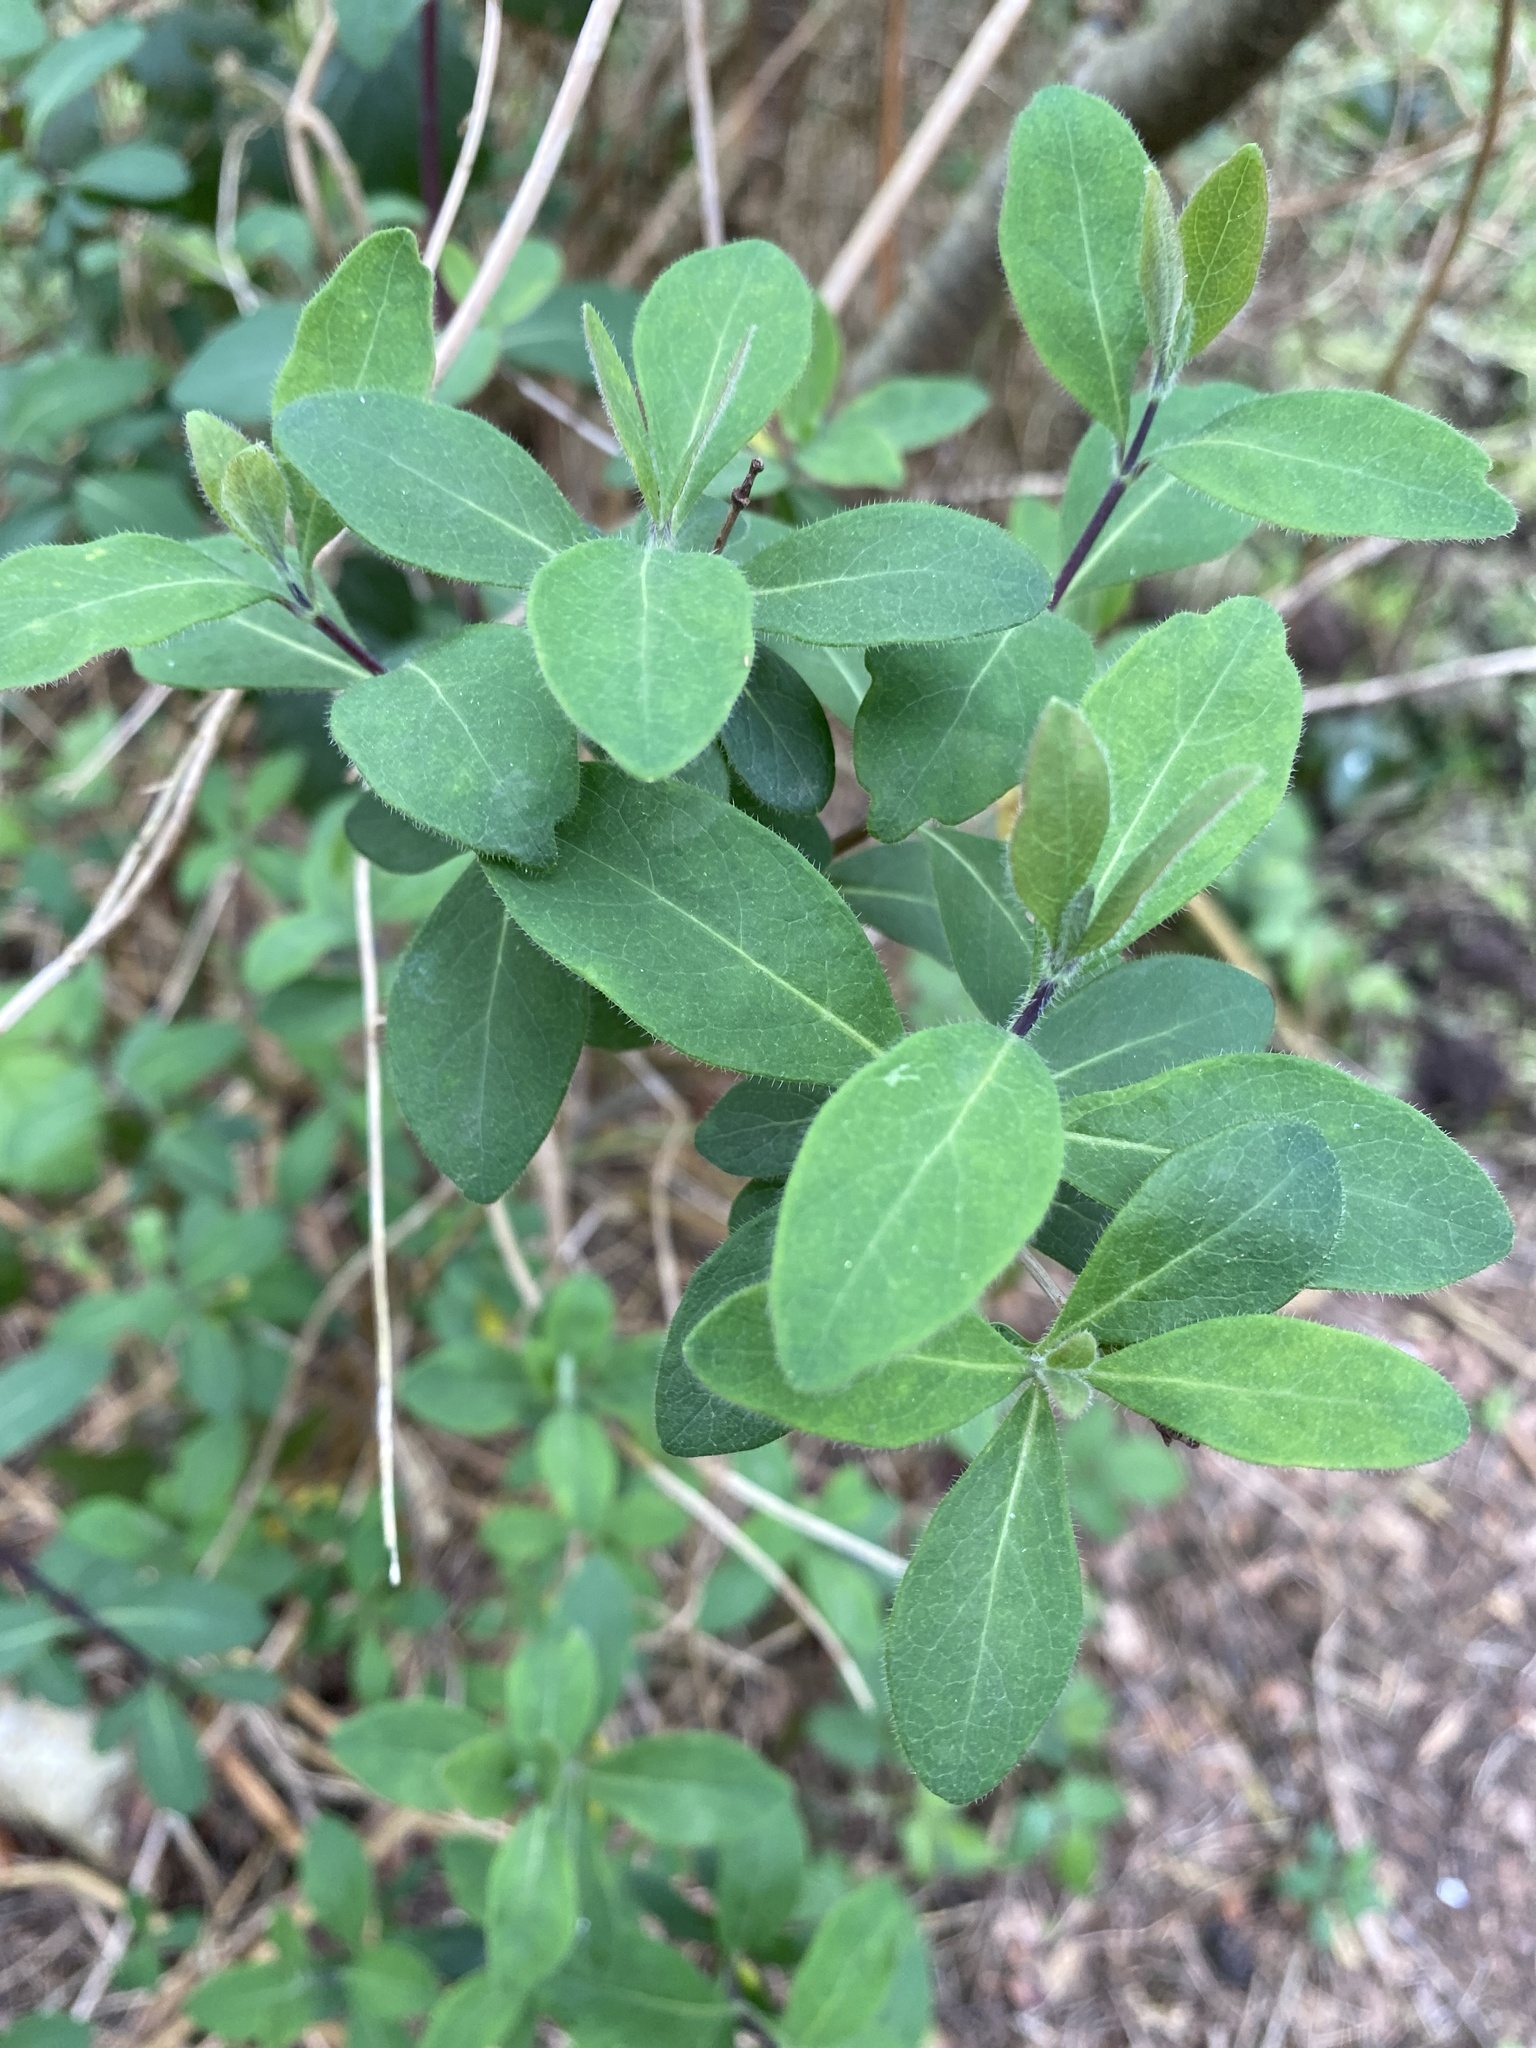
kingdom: Plantae
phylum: Tracheophyta
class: Magnoliopsida
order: Dipsacales
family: Caprifoliaceae
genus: Lonicera
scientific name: Lonicera periclymenum
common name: European honeysuckle
